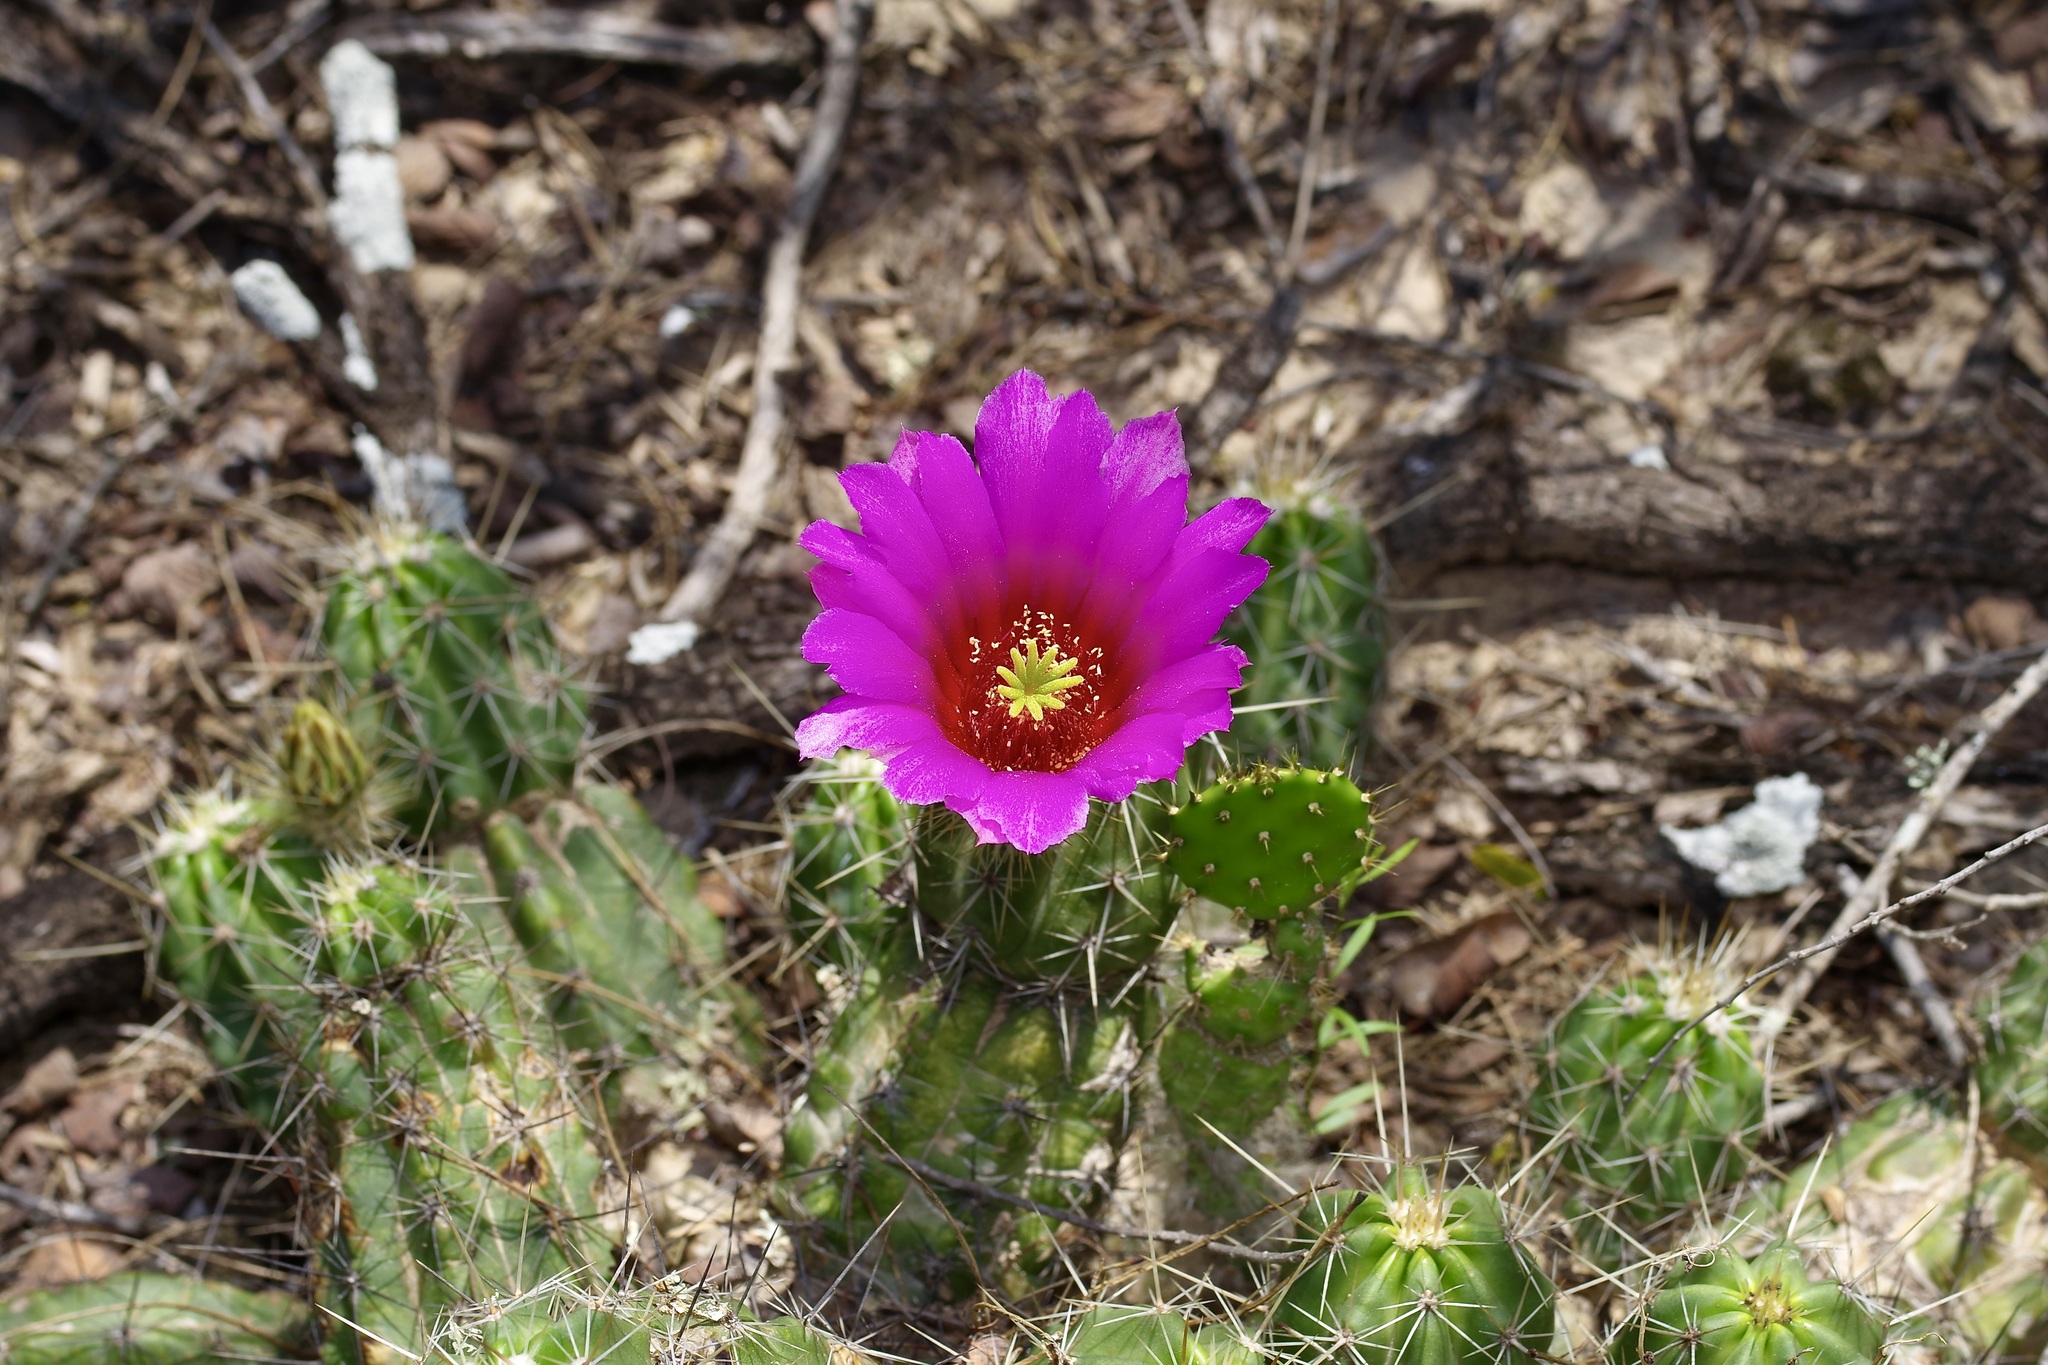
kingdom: Plantae
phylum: Tracheophyta
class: Magnoliopsida
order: Caryophyllales
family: Cactaceae
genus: Echinocereus
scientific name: Echinocereus enneacanthus
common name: Pitaya
